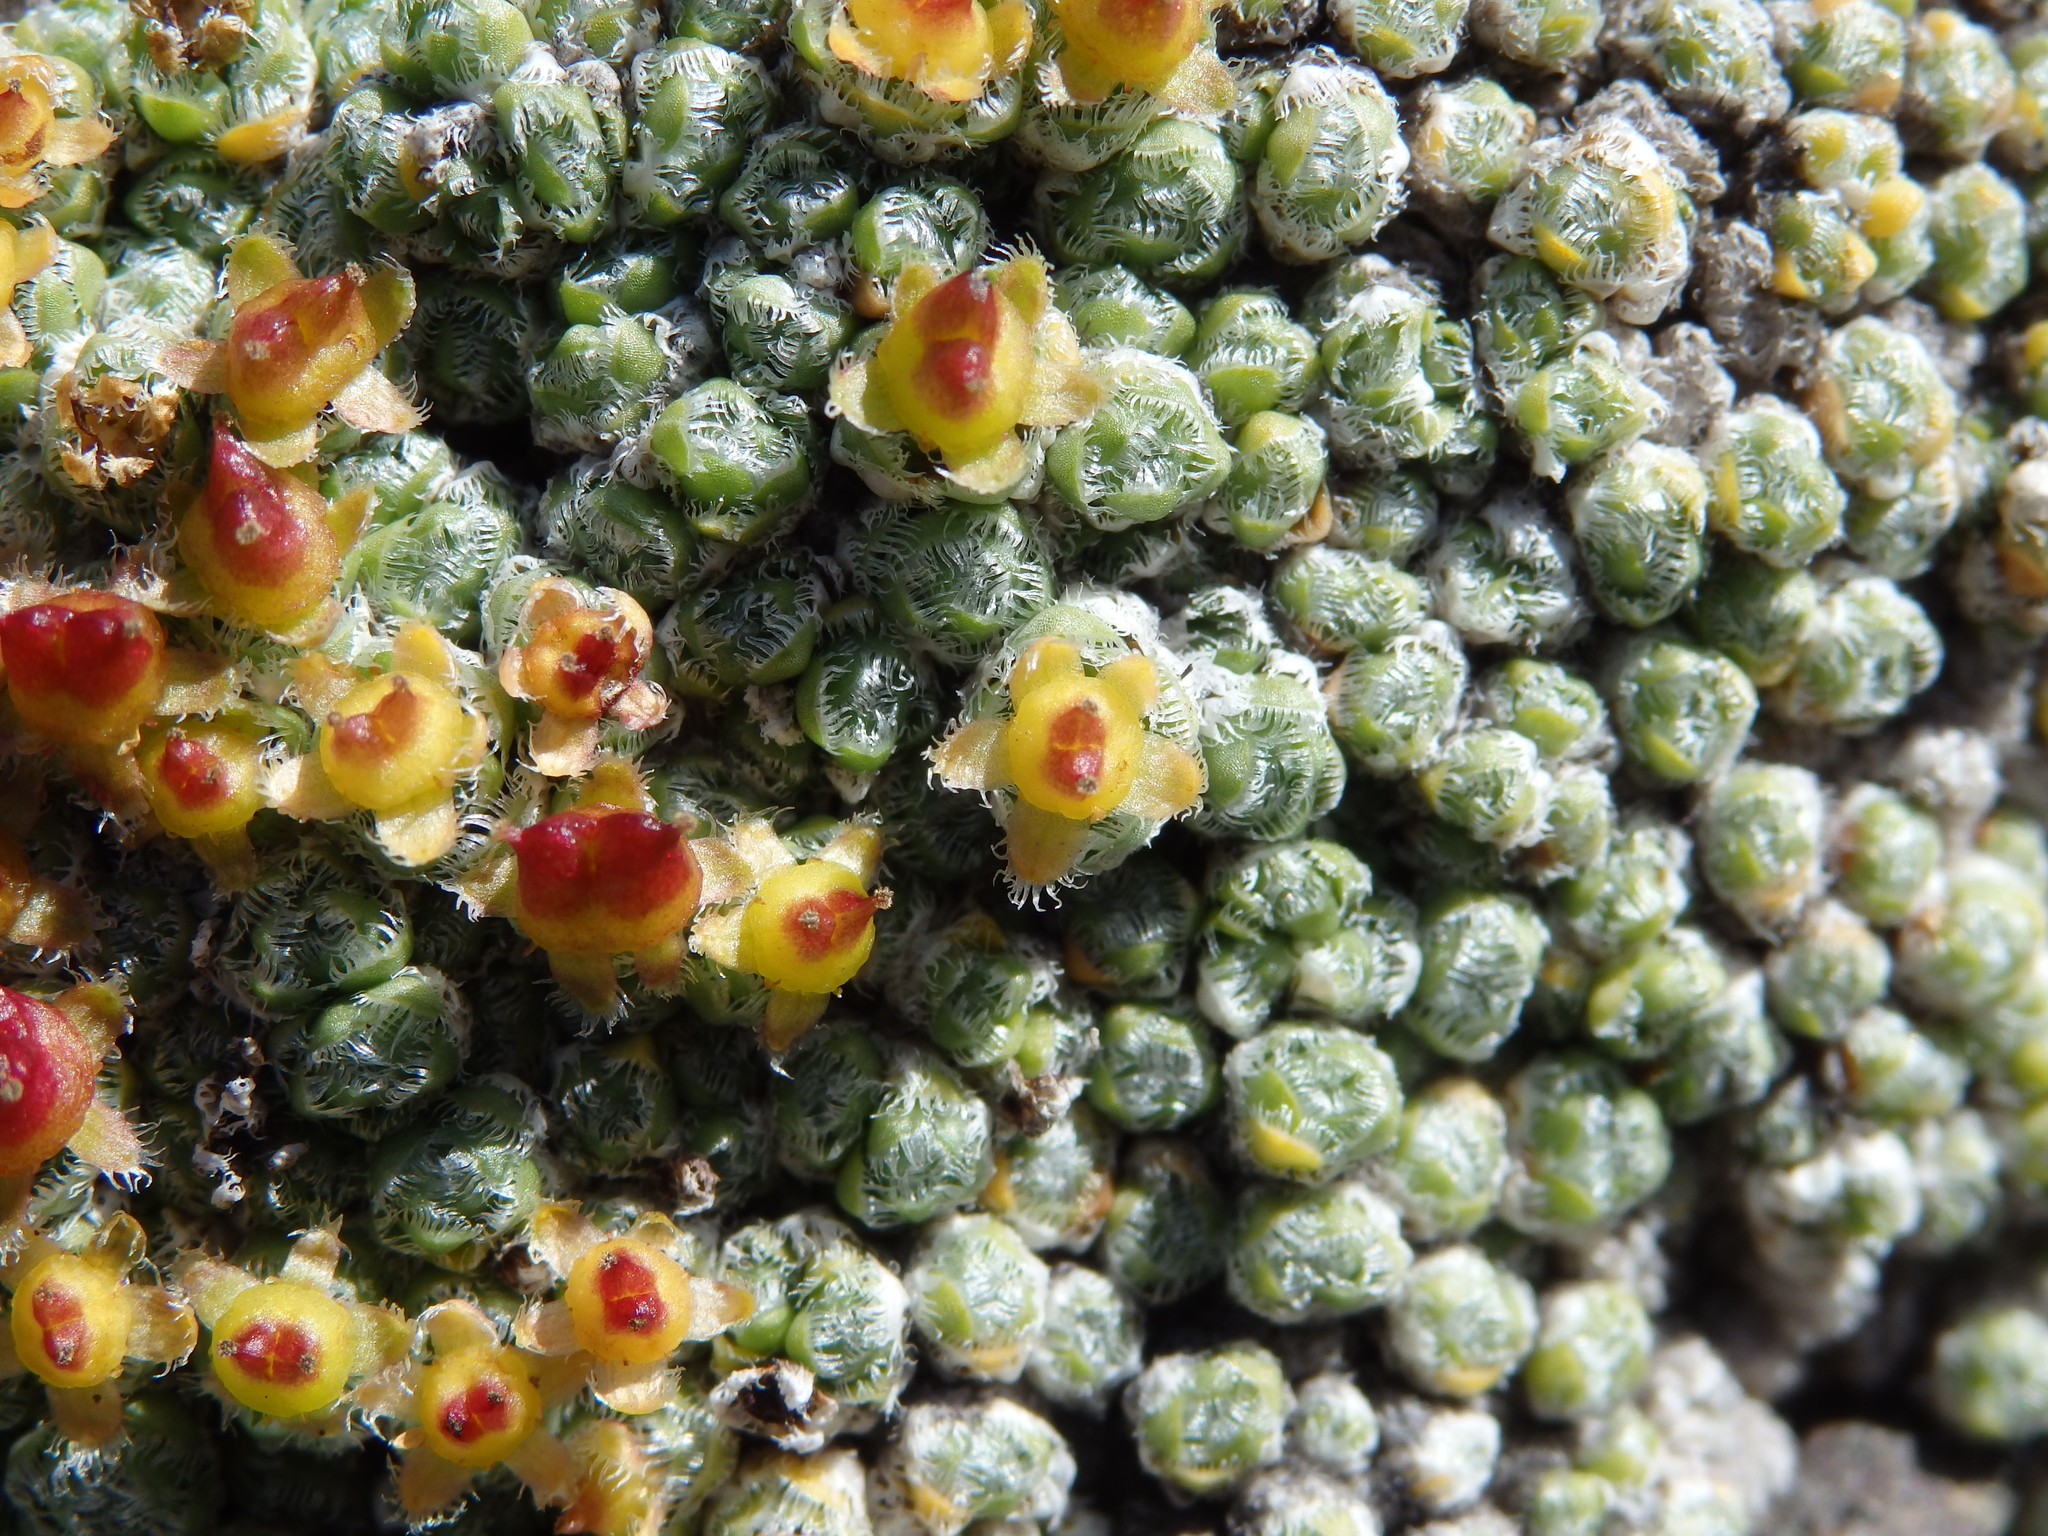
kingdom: Plantae
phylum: Tracheophyta
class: Magnoliopsida
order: Saxifragales
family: Saxifragaceae
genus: Saxifraga
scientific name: Saxifraga eschscholtzii
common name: Eschscholtz's saxifrage
